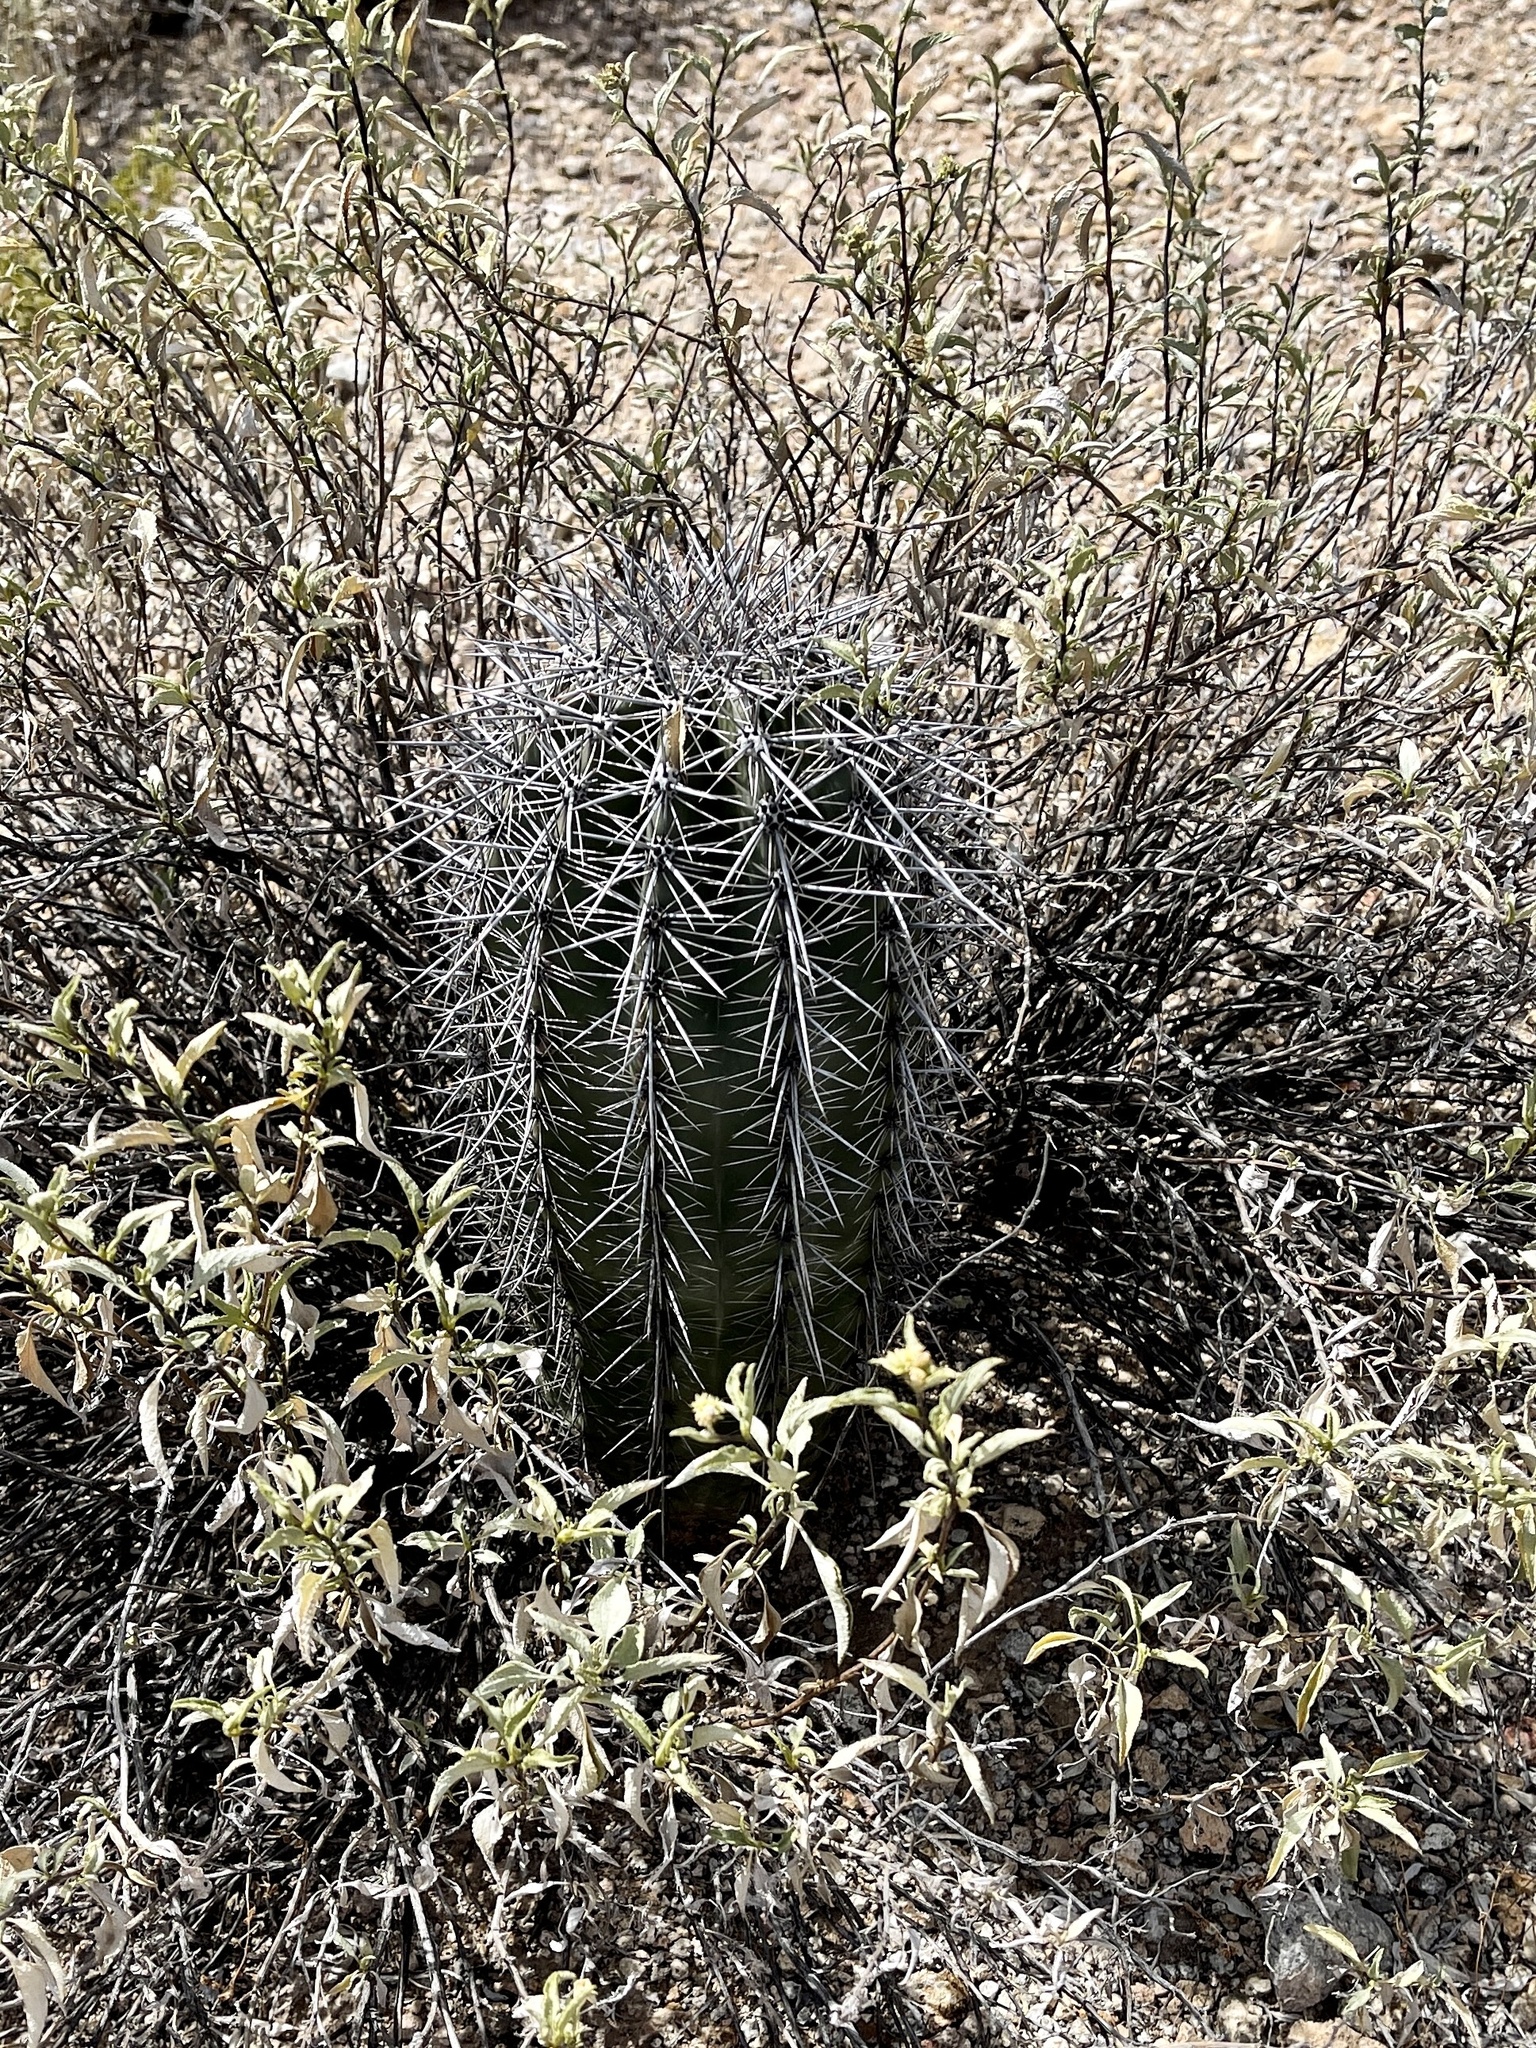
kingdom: Plantae
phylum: Tracheophyta
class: Magnoliopsida
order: Caryophyllales
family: Cactaceae
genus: Carnegiea
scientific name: Carnegiea gigantea
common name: Saguaro
